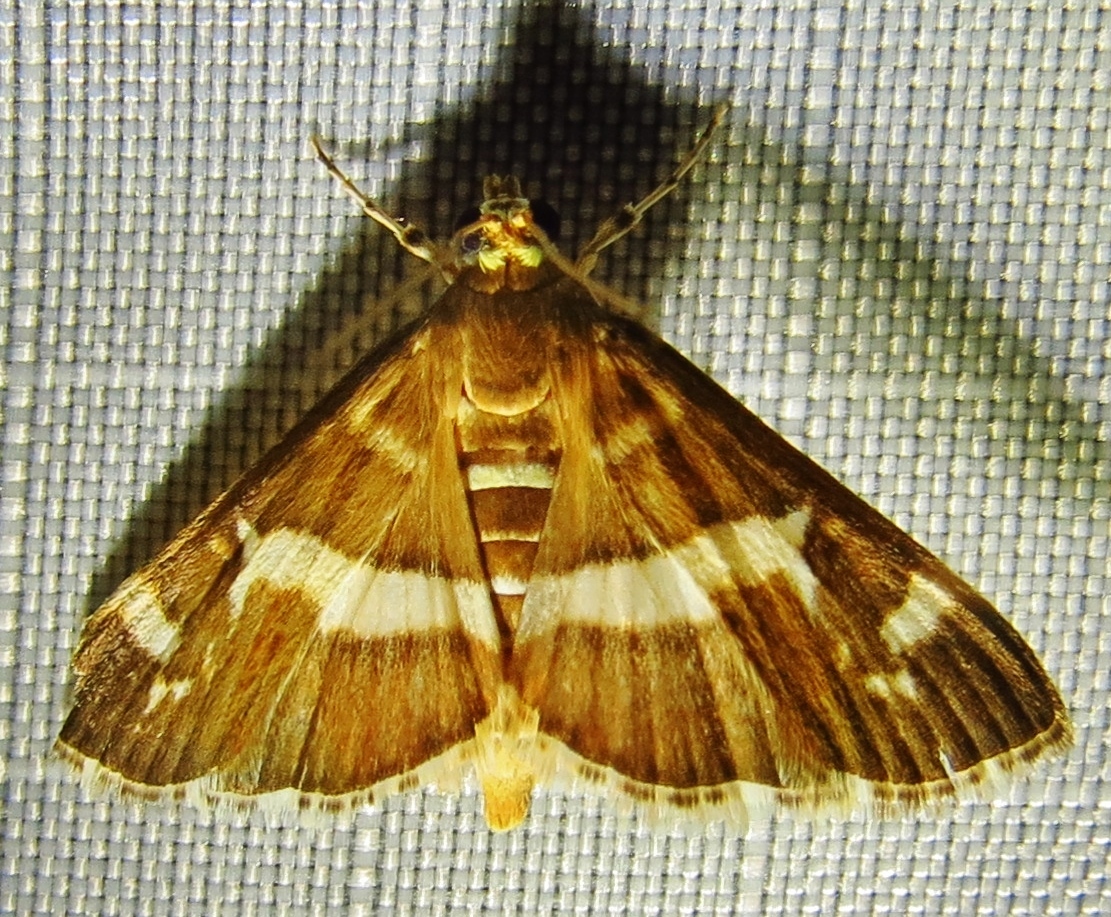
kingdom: Animalia
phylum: Arthropoda
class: Insecta
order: Lepidoptera
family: Crambidae
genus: Spoladea
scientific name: Spoladea recurvalis
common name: Beet webworm moth
